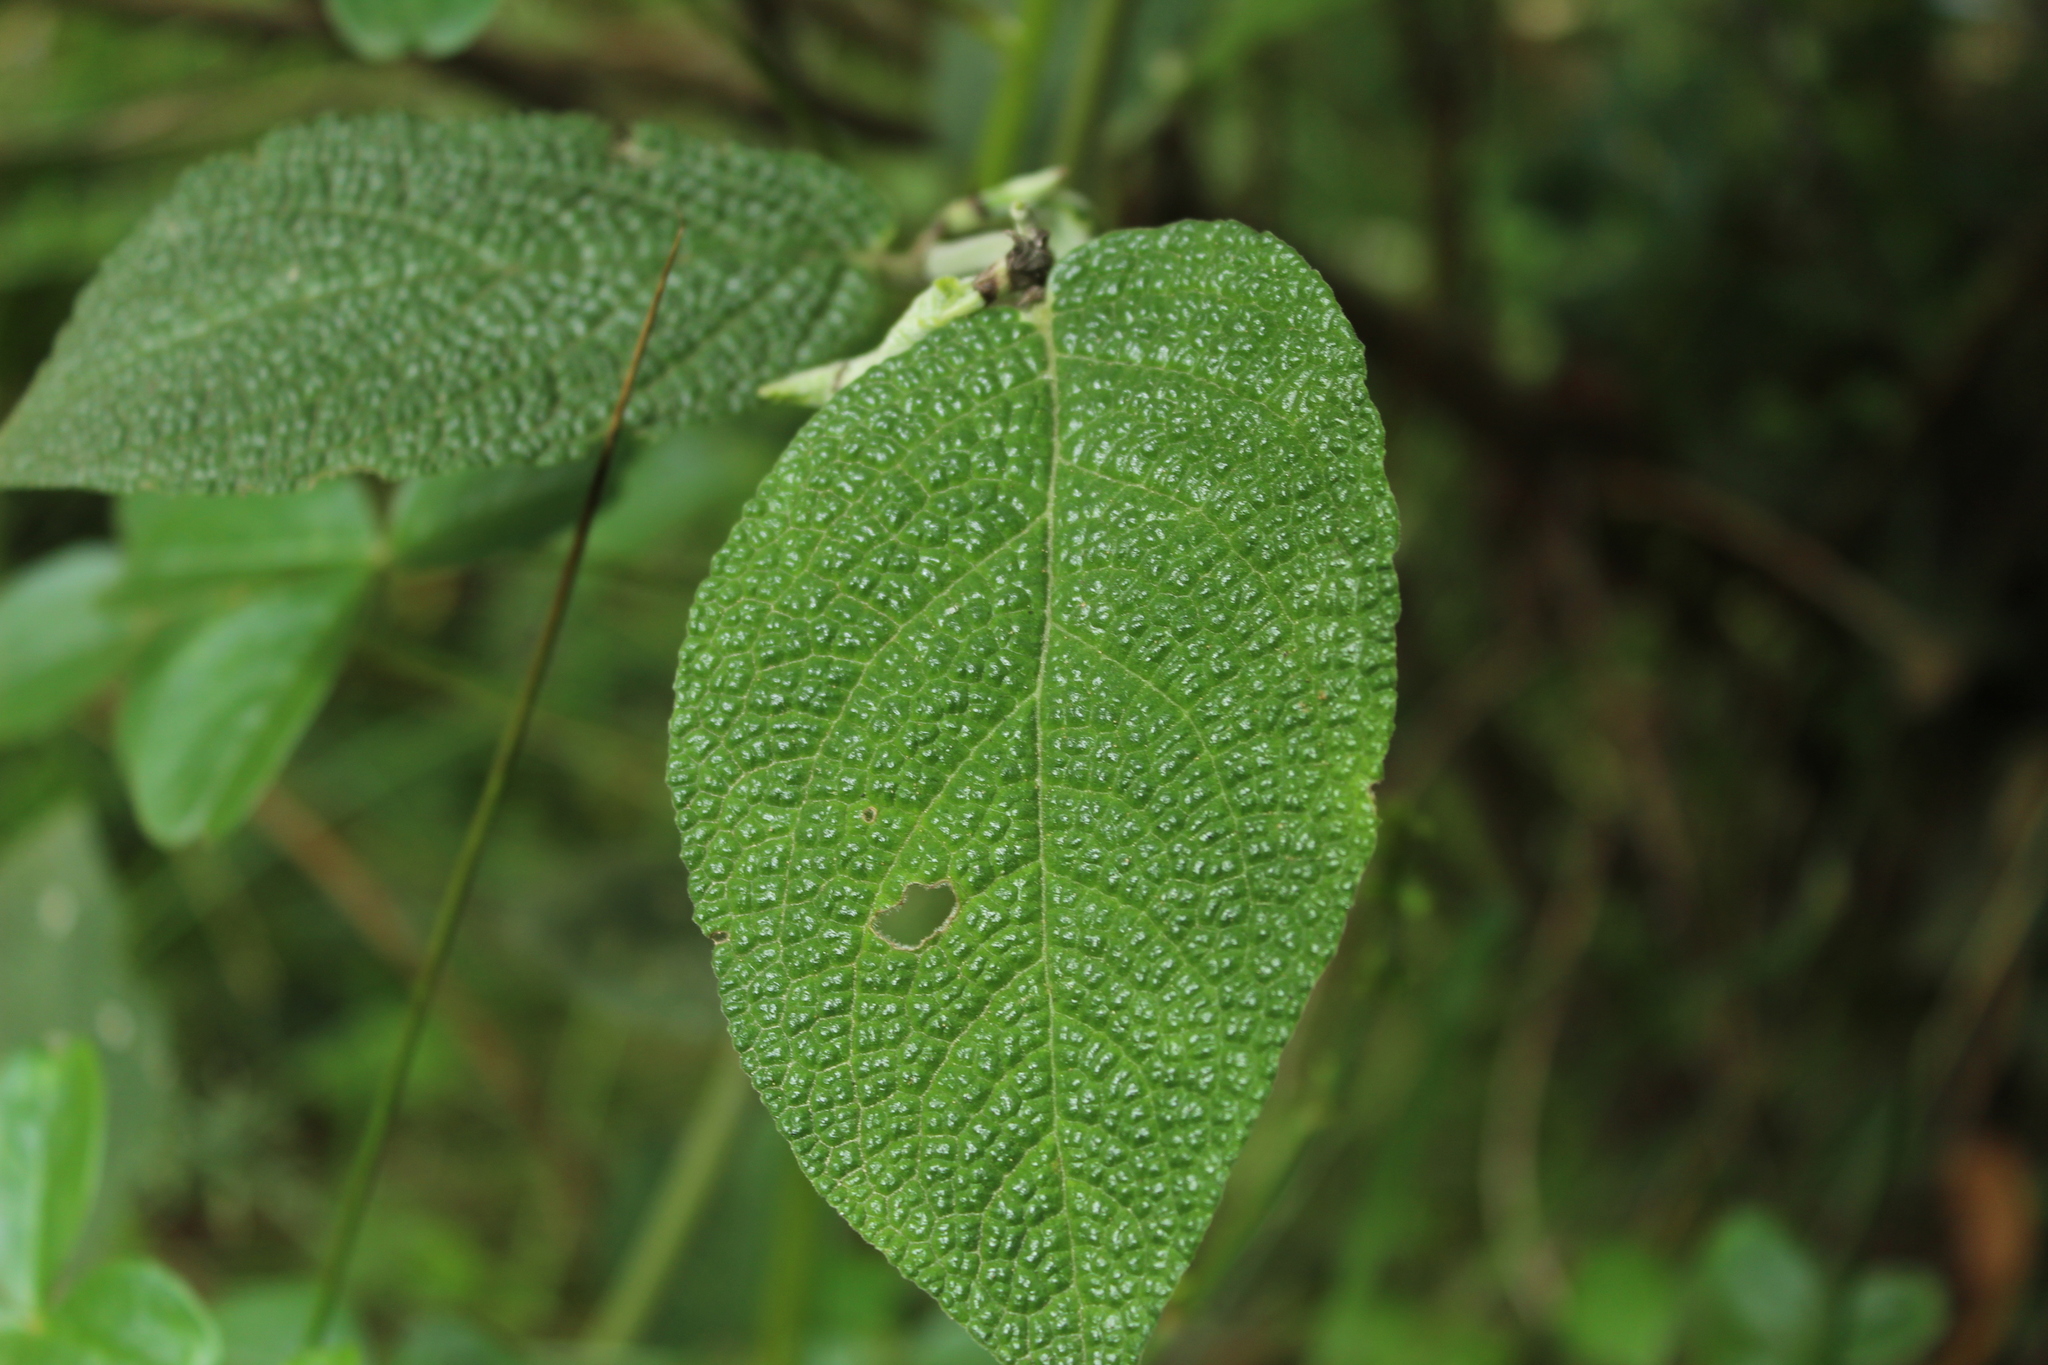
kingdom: Plantae
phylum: Tracheophyta
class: Magnoliopsida
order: Piperales
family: Piperaceae
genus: Piper
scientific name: Piper artanthe
